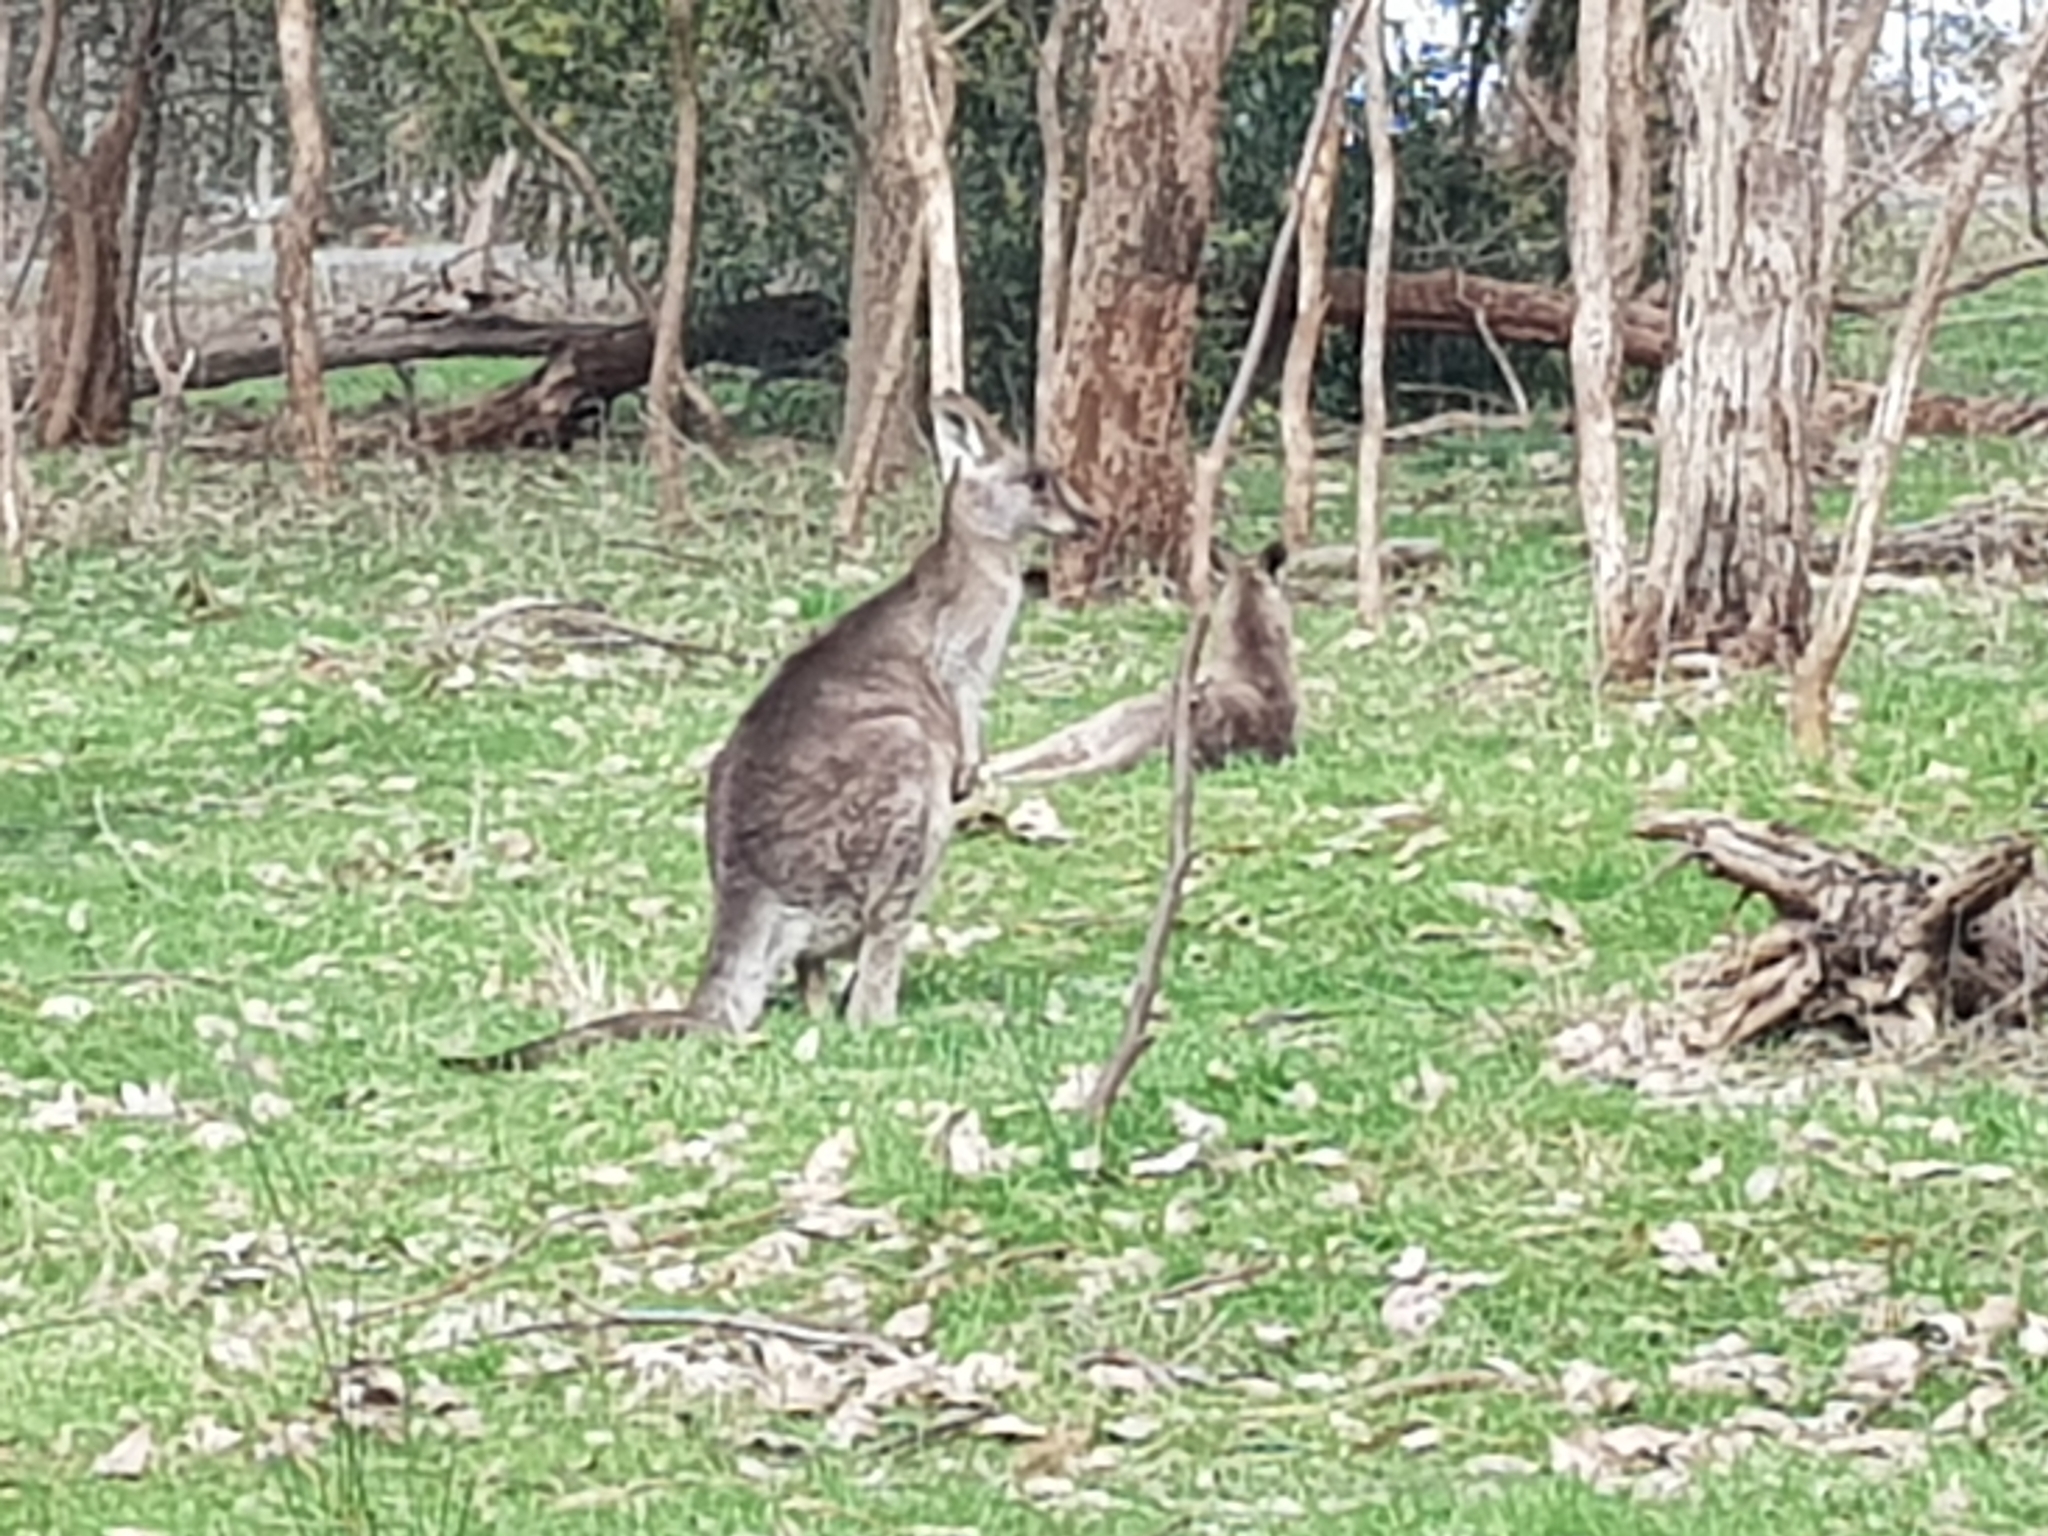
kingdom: Animalia
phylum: Chordata
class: Mammalia
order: Diprotodontia
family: Macropodidae
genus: Macropus
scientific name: Macropus giganteus
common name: Eastern grey kangaroo
